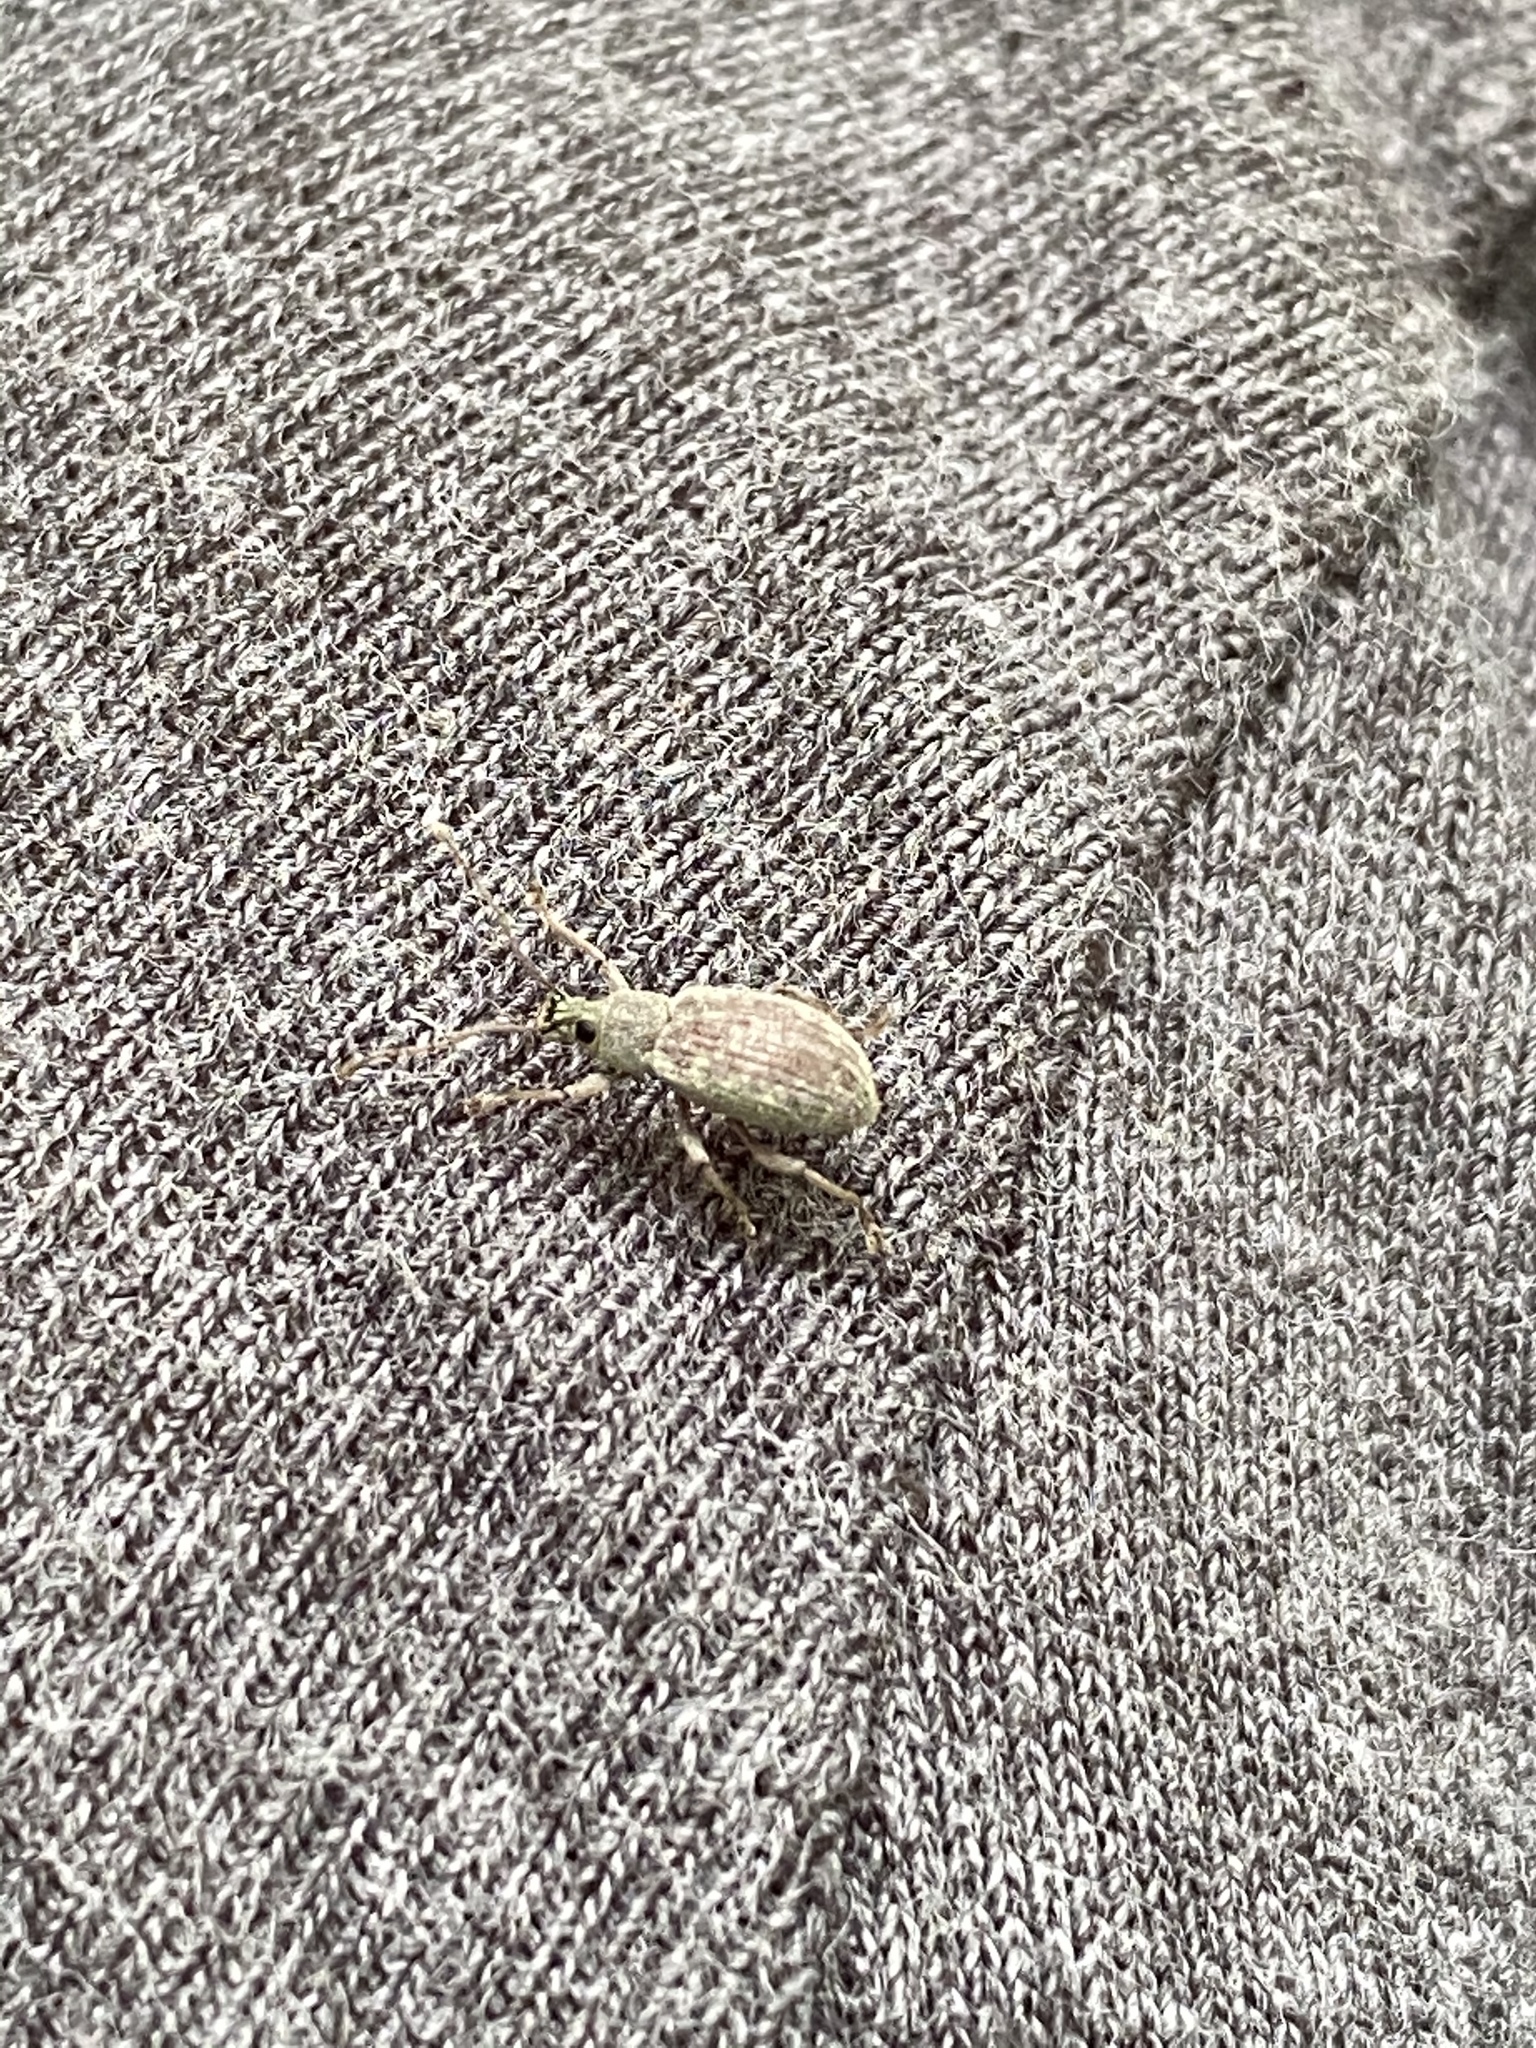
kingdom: Animalia
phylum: Arthropoda
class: Insecta
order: Coleoptera
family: Curculionidae
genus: Cyrtepistomus
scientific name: Cyrtepistomus castaneus
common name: Weevil
